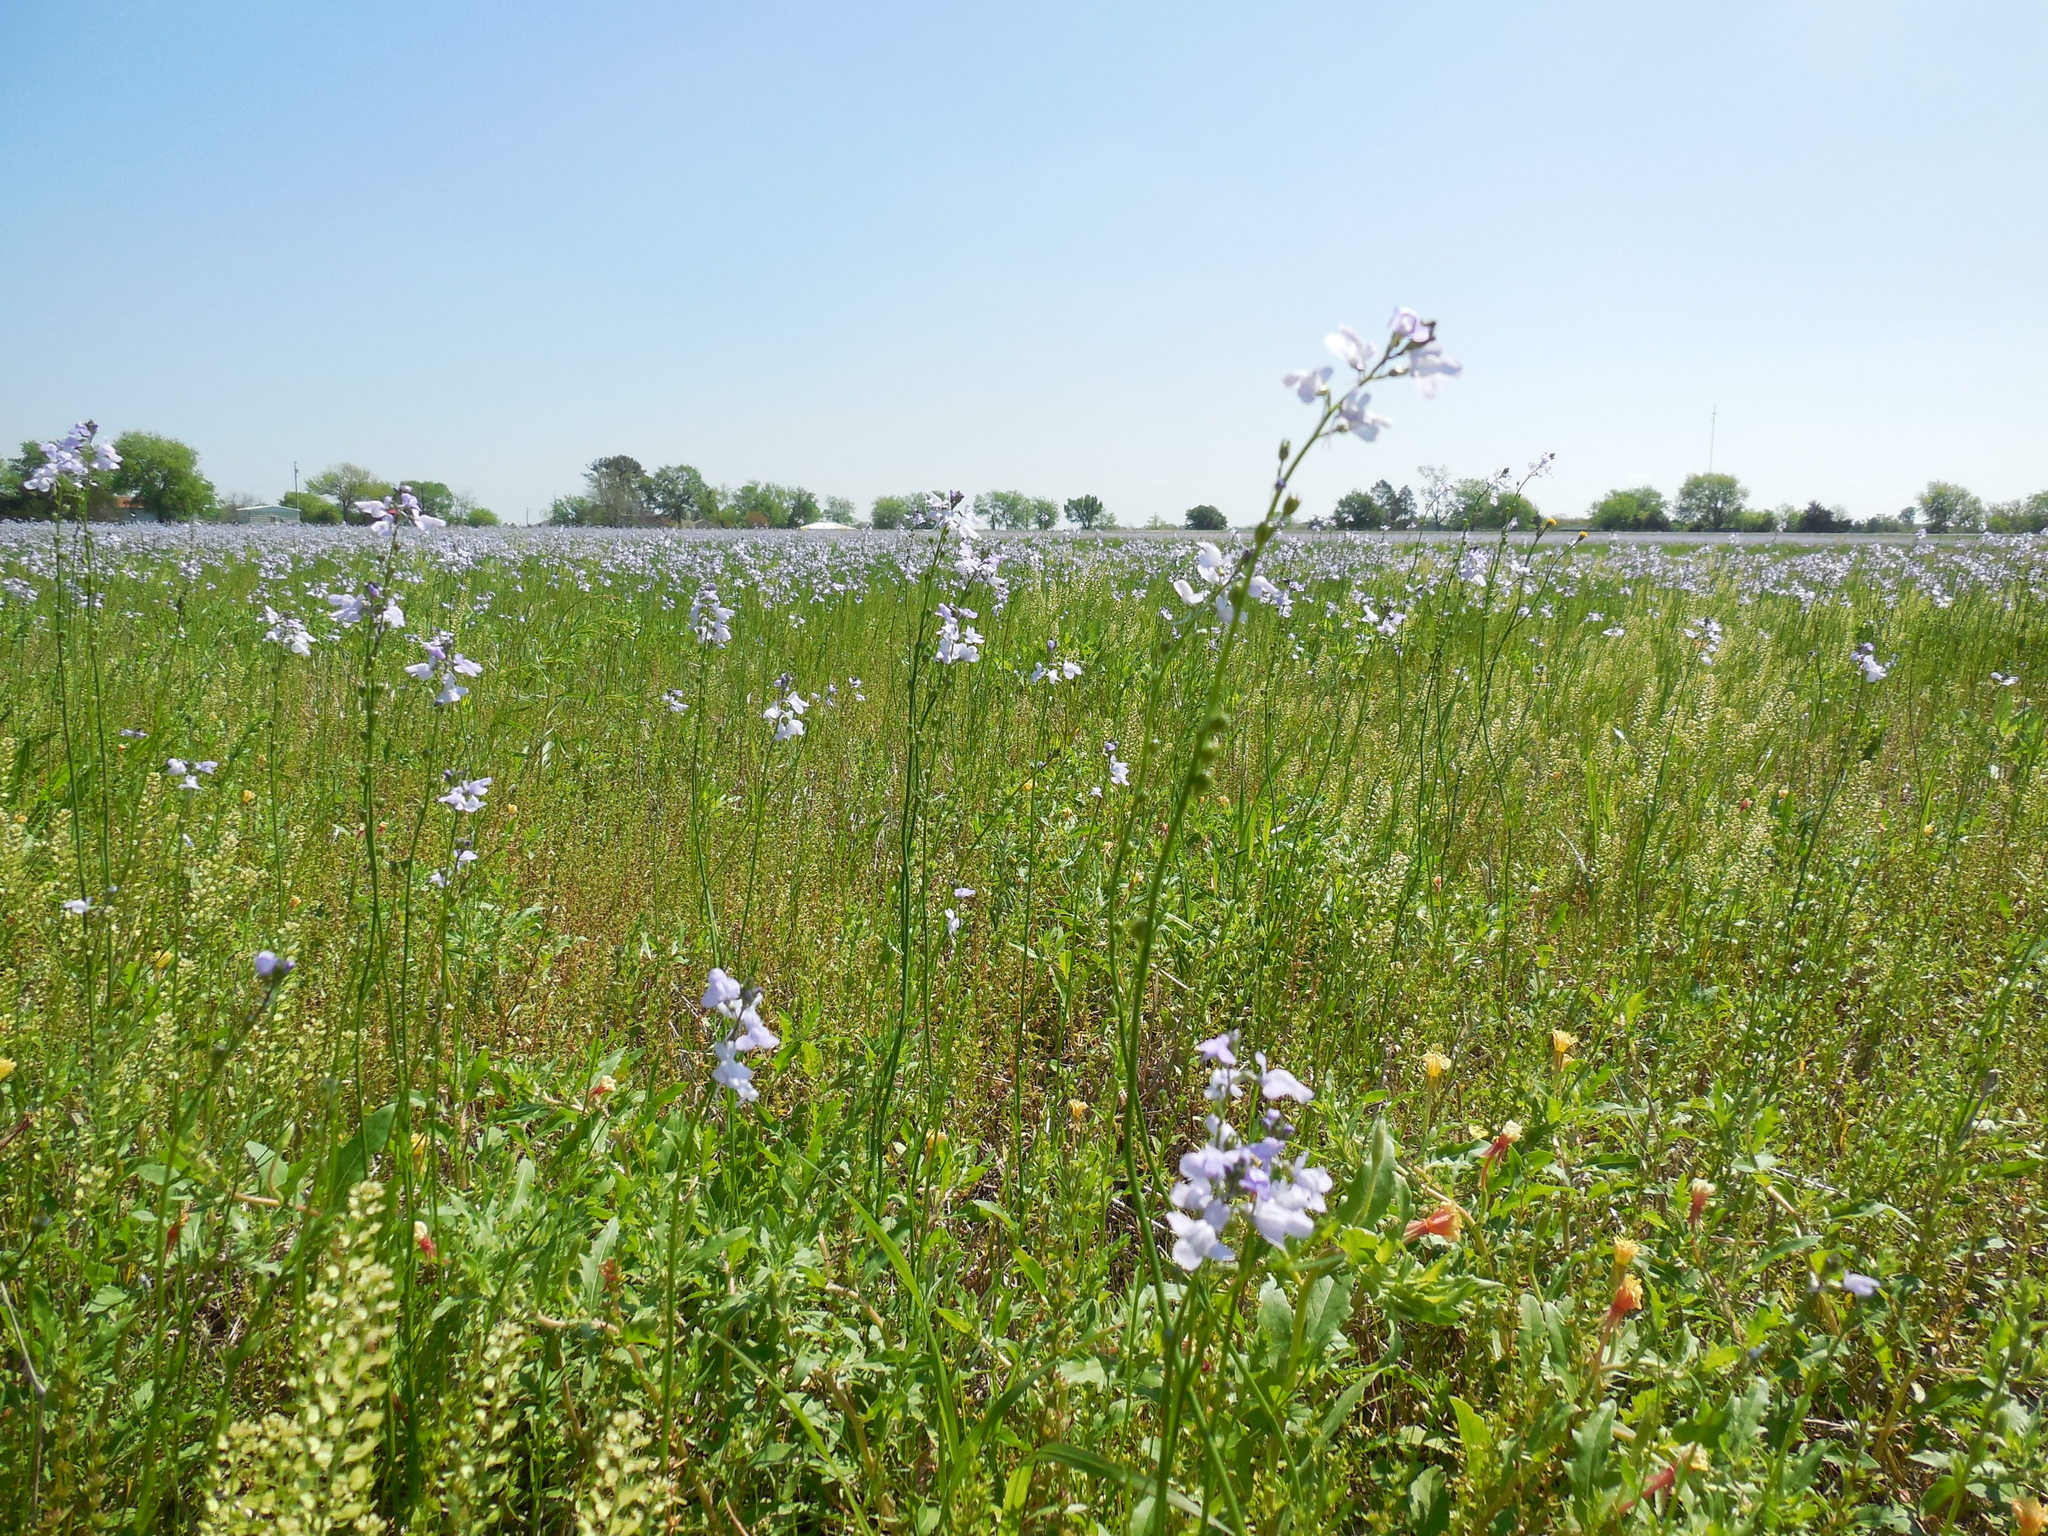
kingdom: Plantae
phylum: Tracheophyta
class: Magnoliopsida
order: Lamiales
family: Plantaginaceae
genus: Nuttallanthus
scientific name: Nuttallanthus texanus
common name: Texas toadflax
